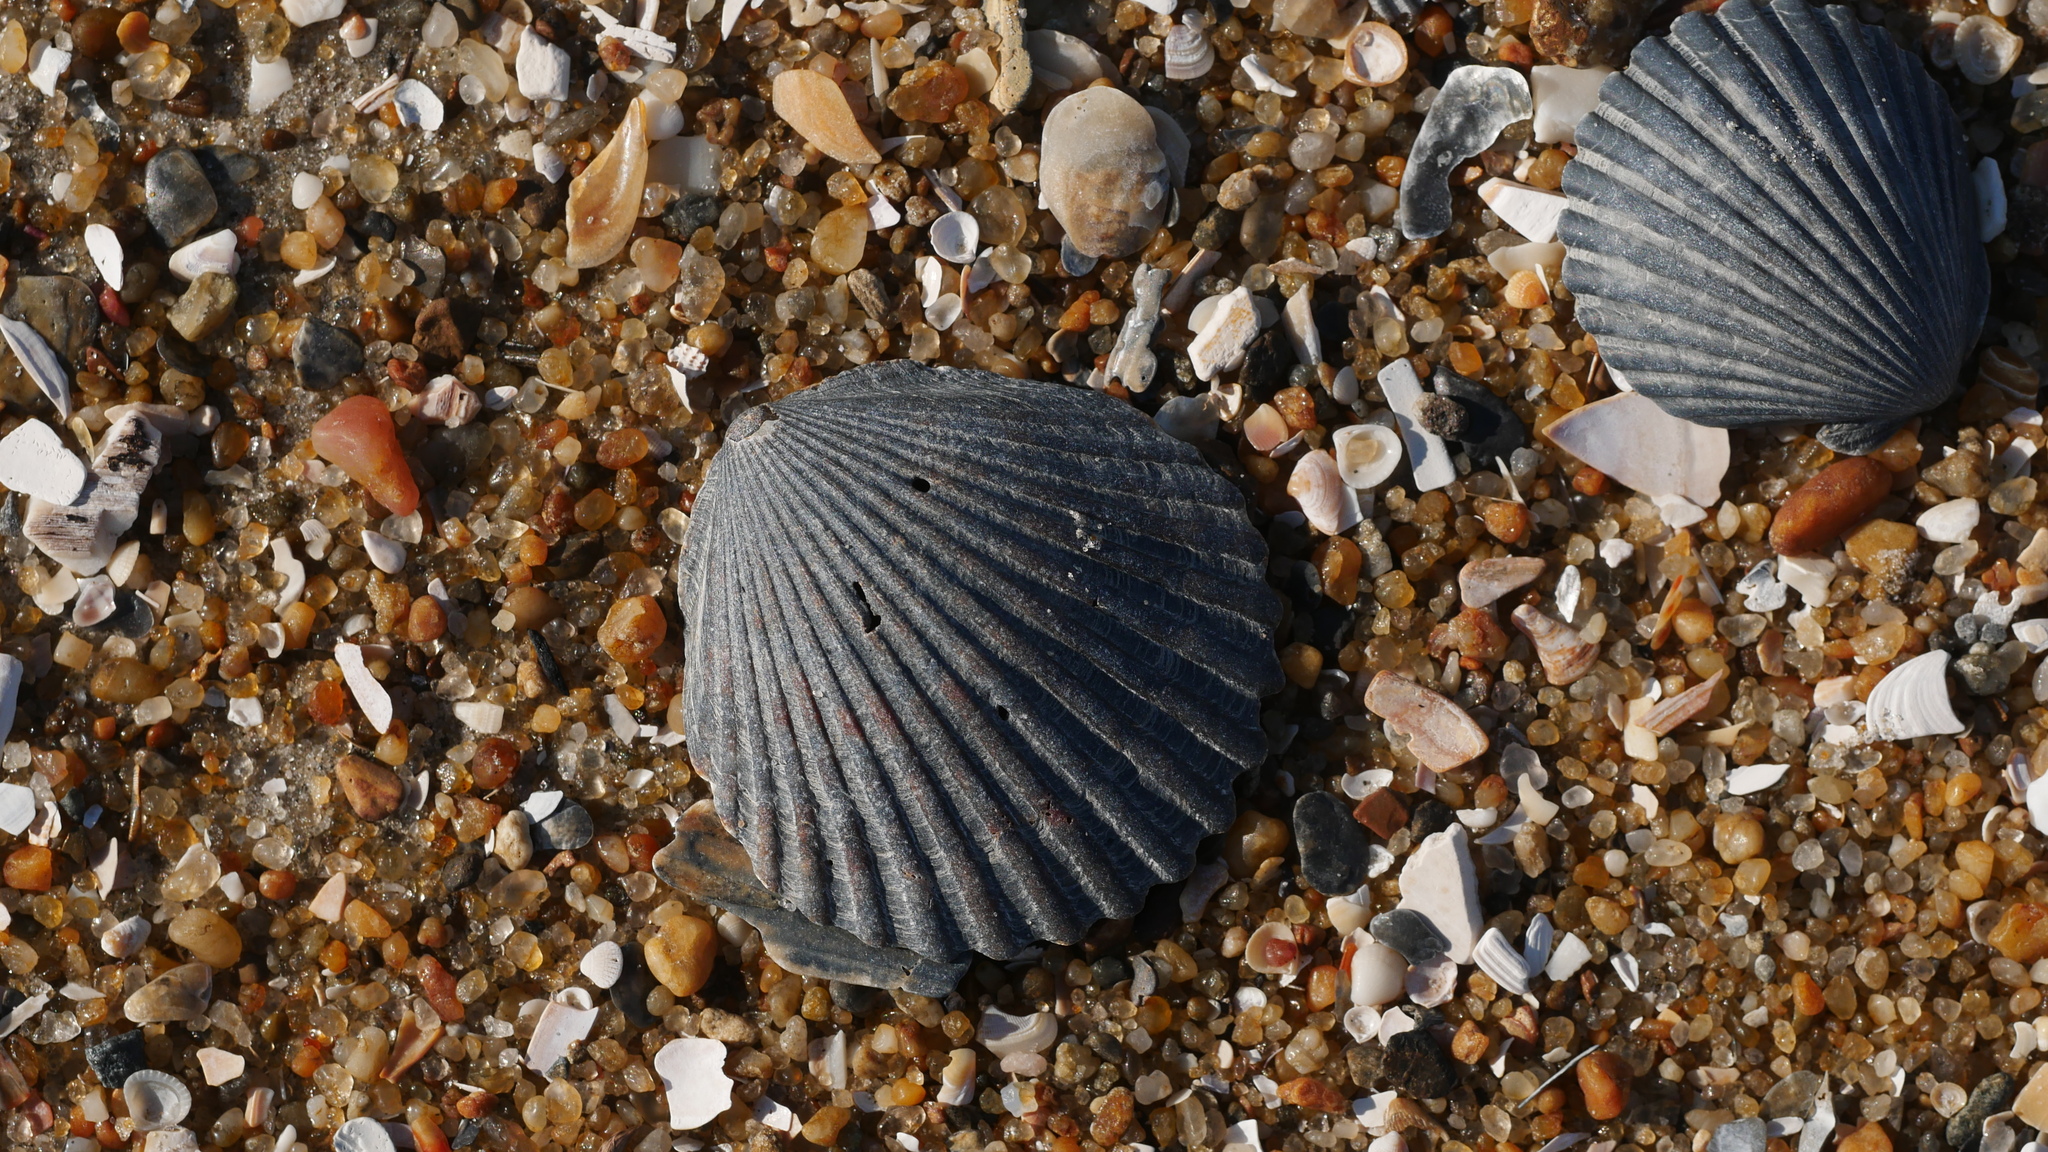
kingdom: Animalia
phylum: Mollusca
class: Bivalvia
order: Pectinida
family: Pectinidae
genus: Argopecten
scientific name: Argopecten irradians
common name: Atlantic bay scallop
